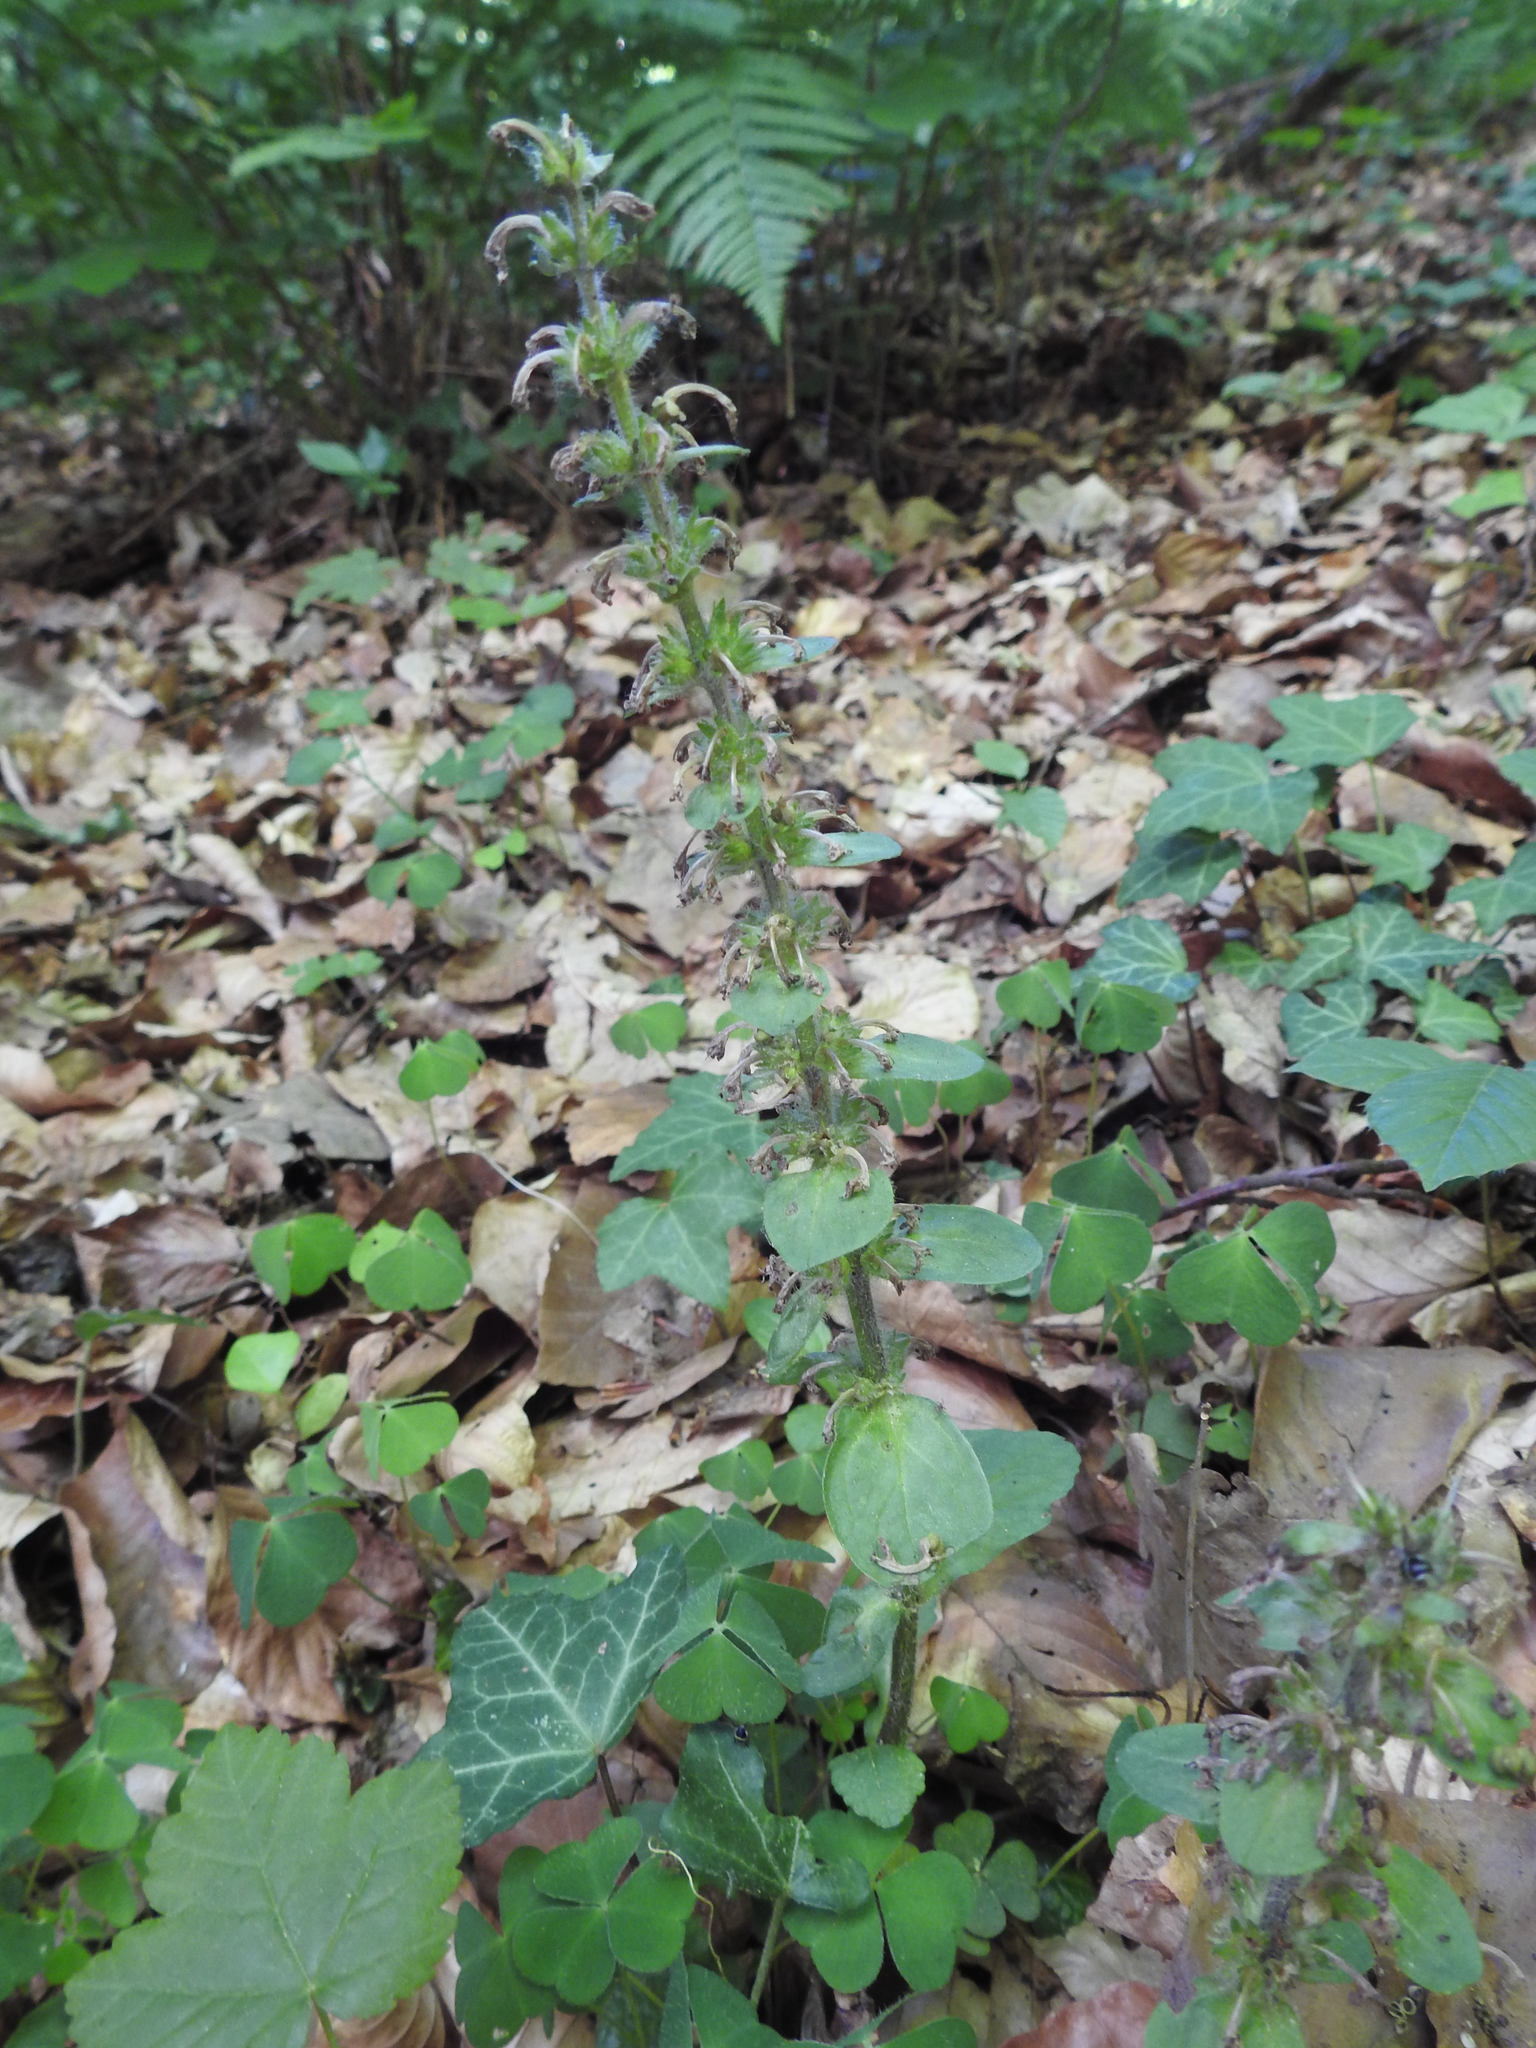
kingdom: Plantae
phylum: Tracheophyta
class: Magnoliopsida
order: Lamiales
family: Lamiaceae
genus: Ajuga
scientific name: Ajuga reptans
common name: Bugle
